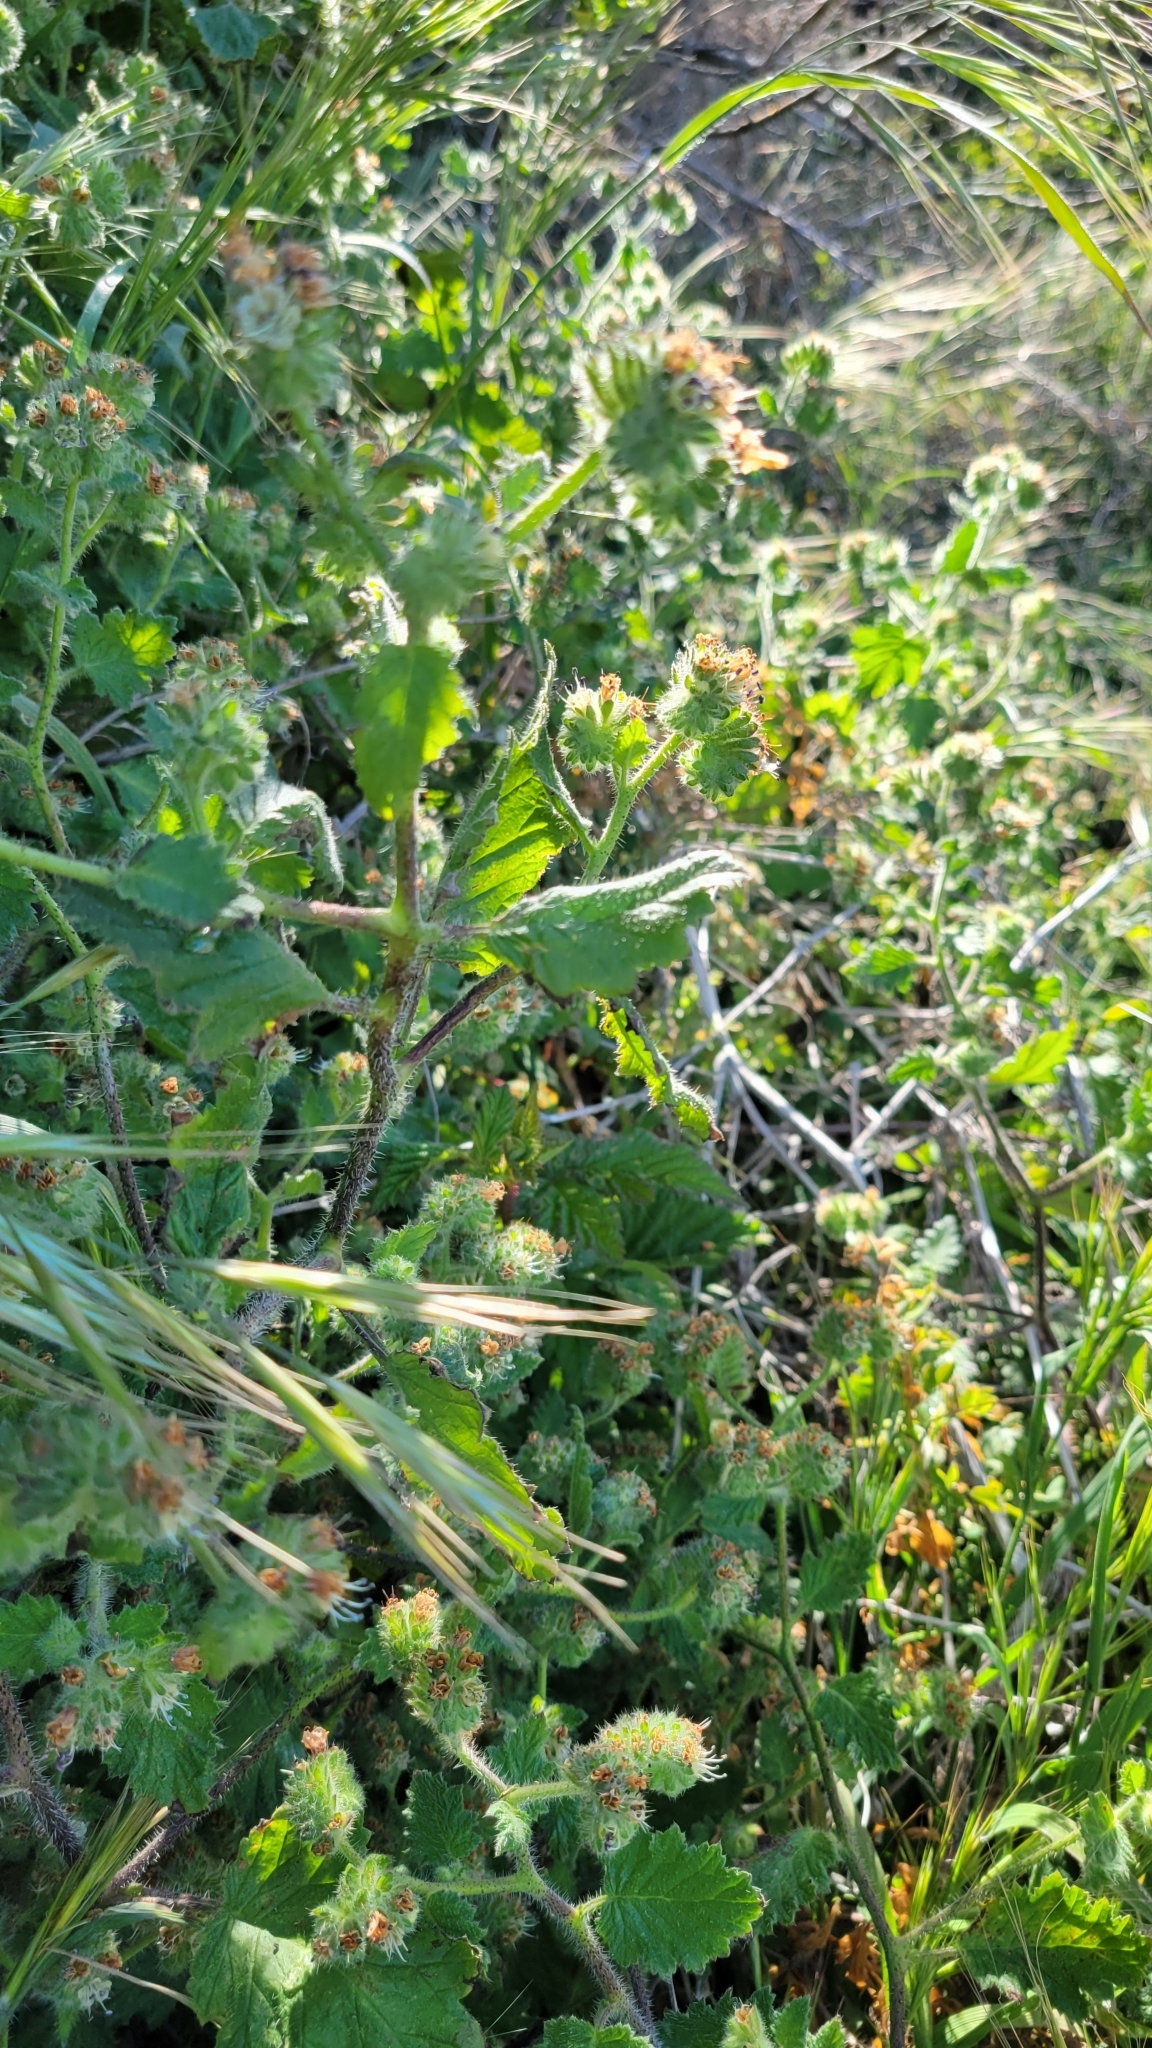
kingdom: Plantae
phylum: Tracheophyta
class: Magnoliopsida
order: Boraginales
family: Hydrophyllaceae
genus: Phacelia
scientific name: Phacelia malvifolia
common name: Mallow-leaf phacelia
